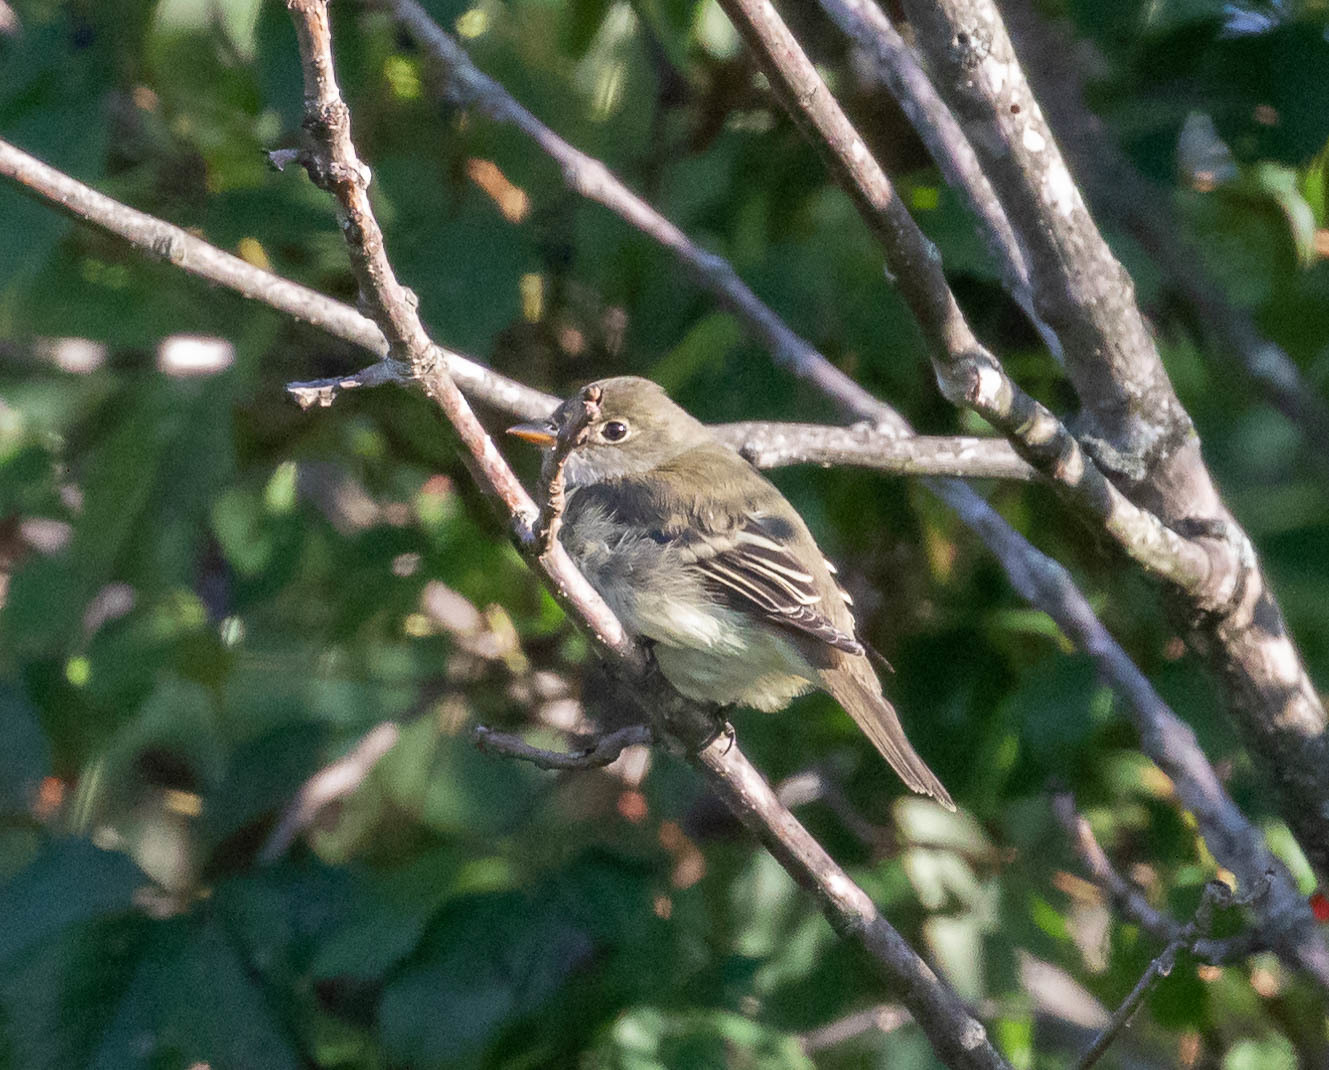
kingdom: Animalia
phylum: Chordata
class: Aves
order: Passeriformes
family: Tyrannidae
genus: Empidonax
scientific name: Empidonax minimus
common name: Least flycatcher
